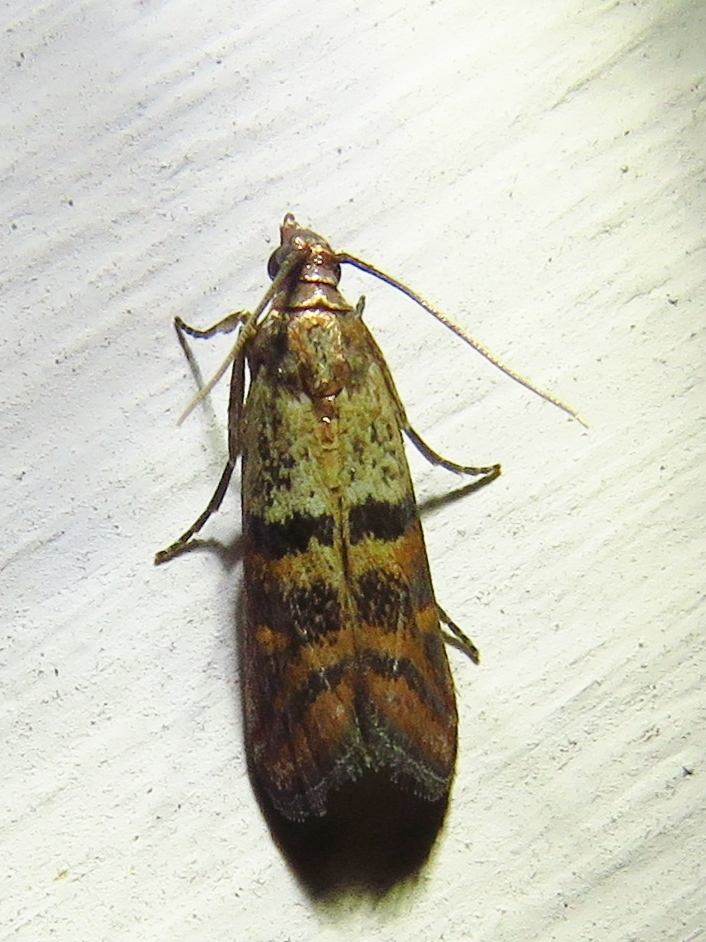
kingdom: Animalia
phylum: Arthropoda
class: Insecta
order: Lepidoptera
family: Pyralidae
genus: Plodia
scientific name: Plodia interpunctella
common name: Indian meal moth
